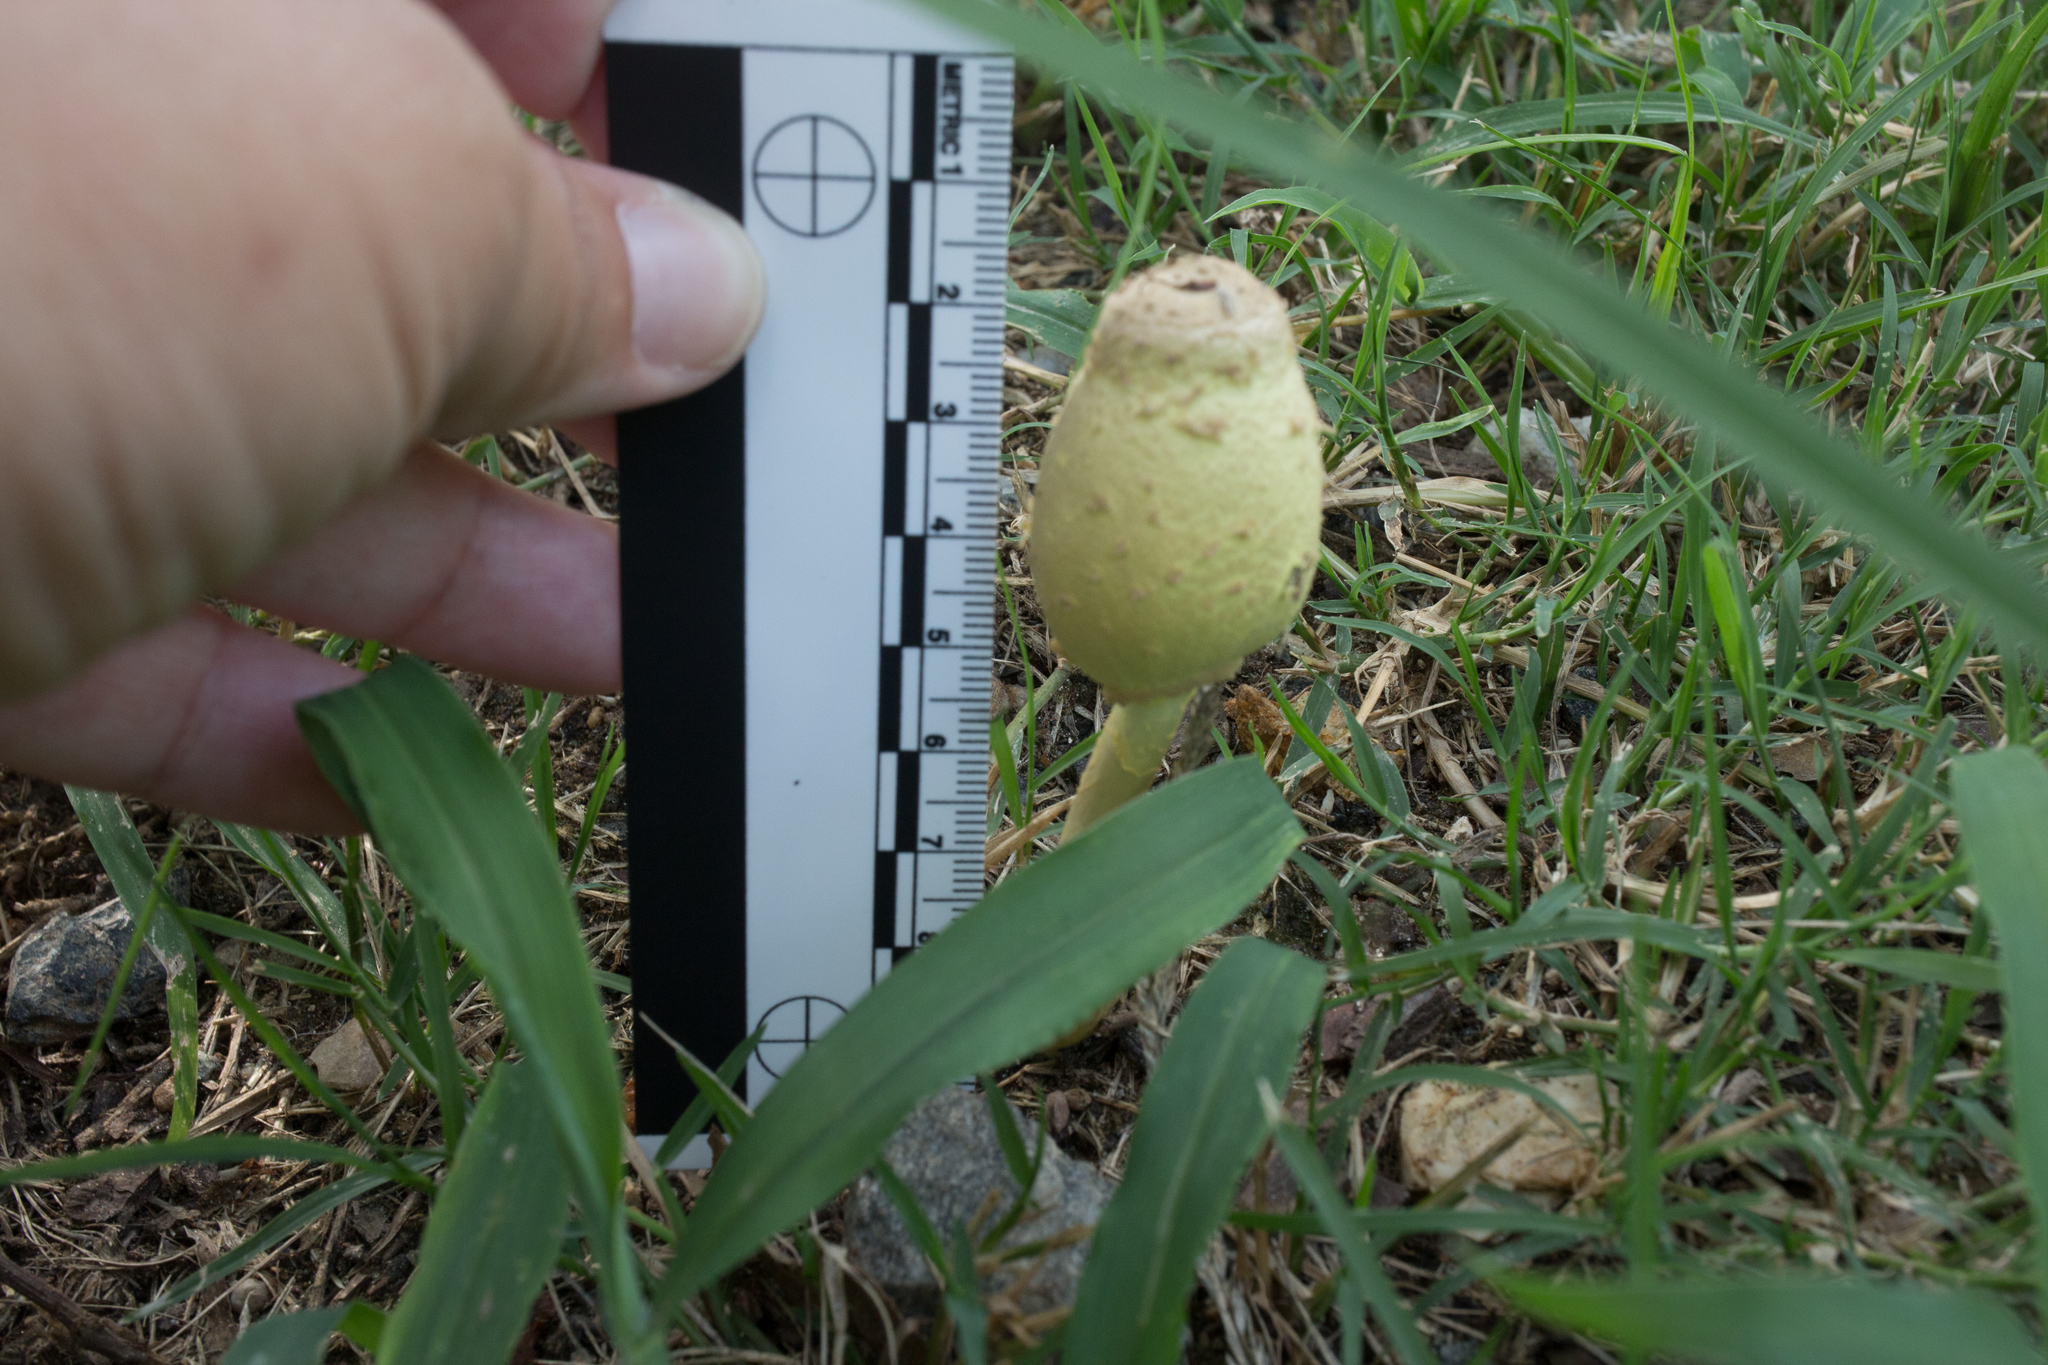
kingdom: Fungi
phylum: Basidiomycota
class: Agaricomycetes
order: Agaricales
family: Agaricaceae
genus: Leucocoprinus
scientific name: Leucocoprinus birnbaumii
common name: Plantpot dapperling
